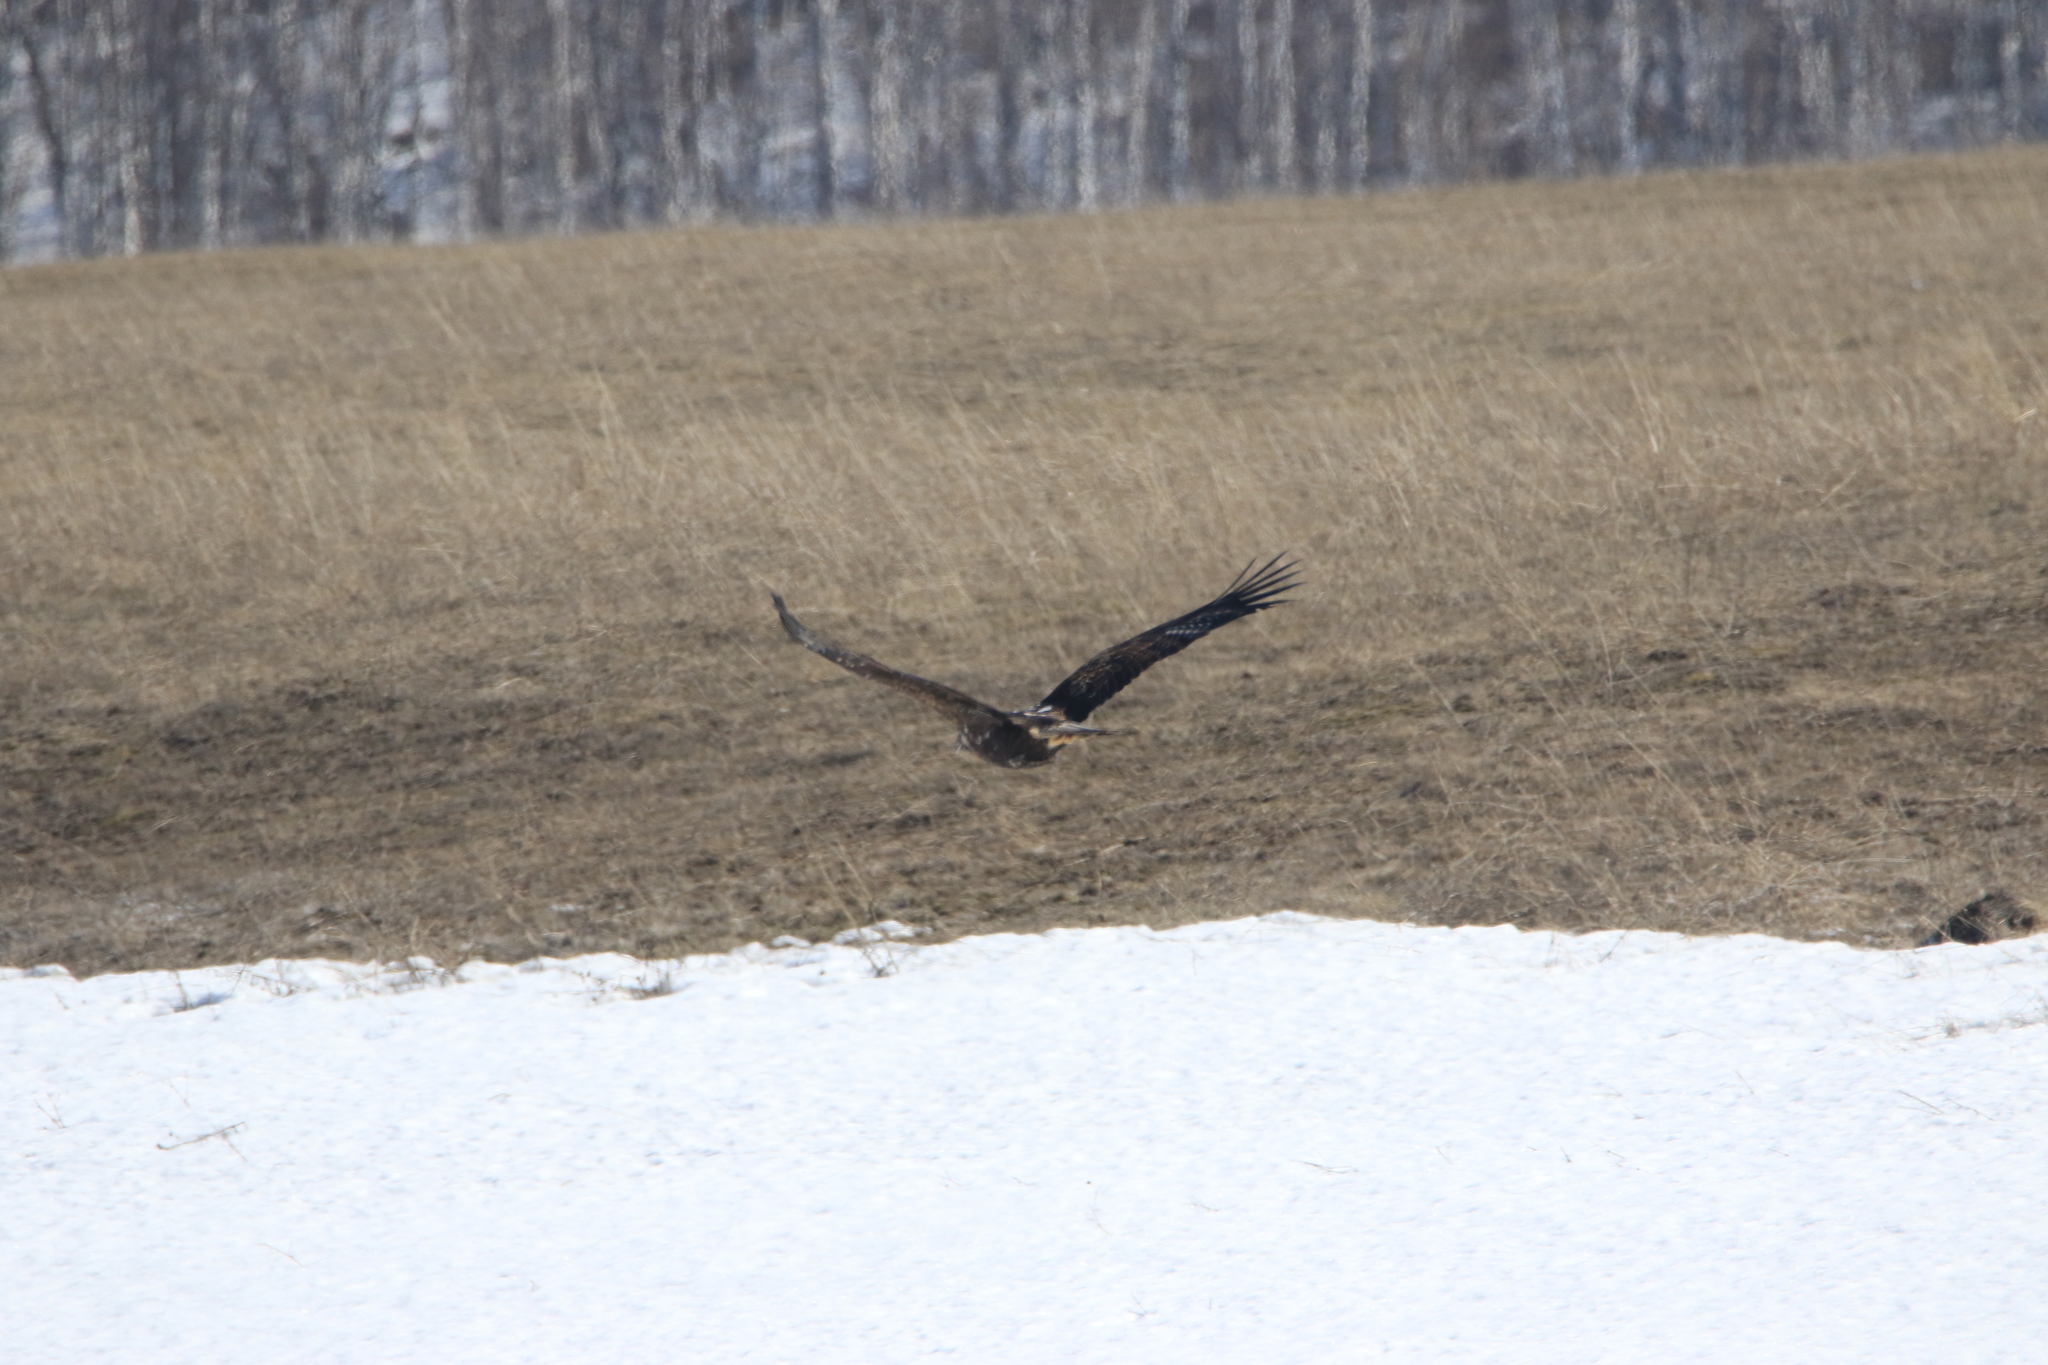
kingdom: Animalia
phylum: Chordata
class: Aves
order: Accipitriformes
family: Accipitridae
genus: Aquila
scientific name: Aquila heliaca
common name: Eastern imperial eagle
